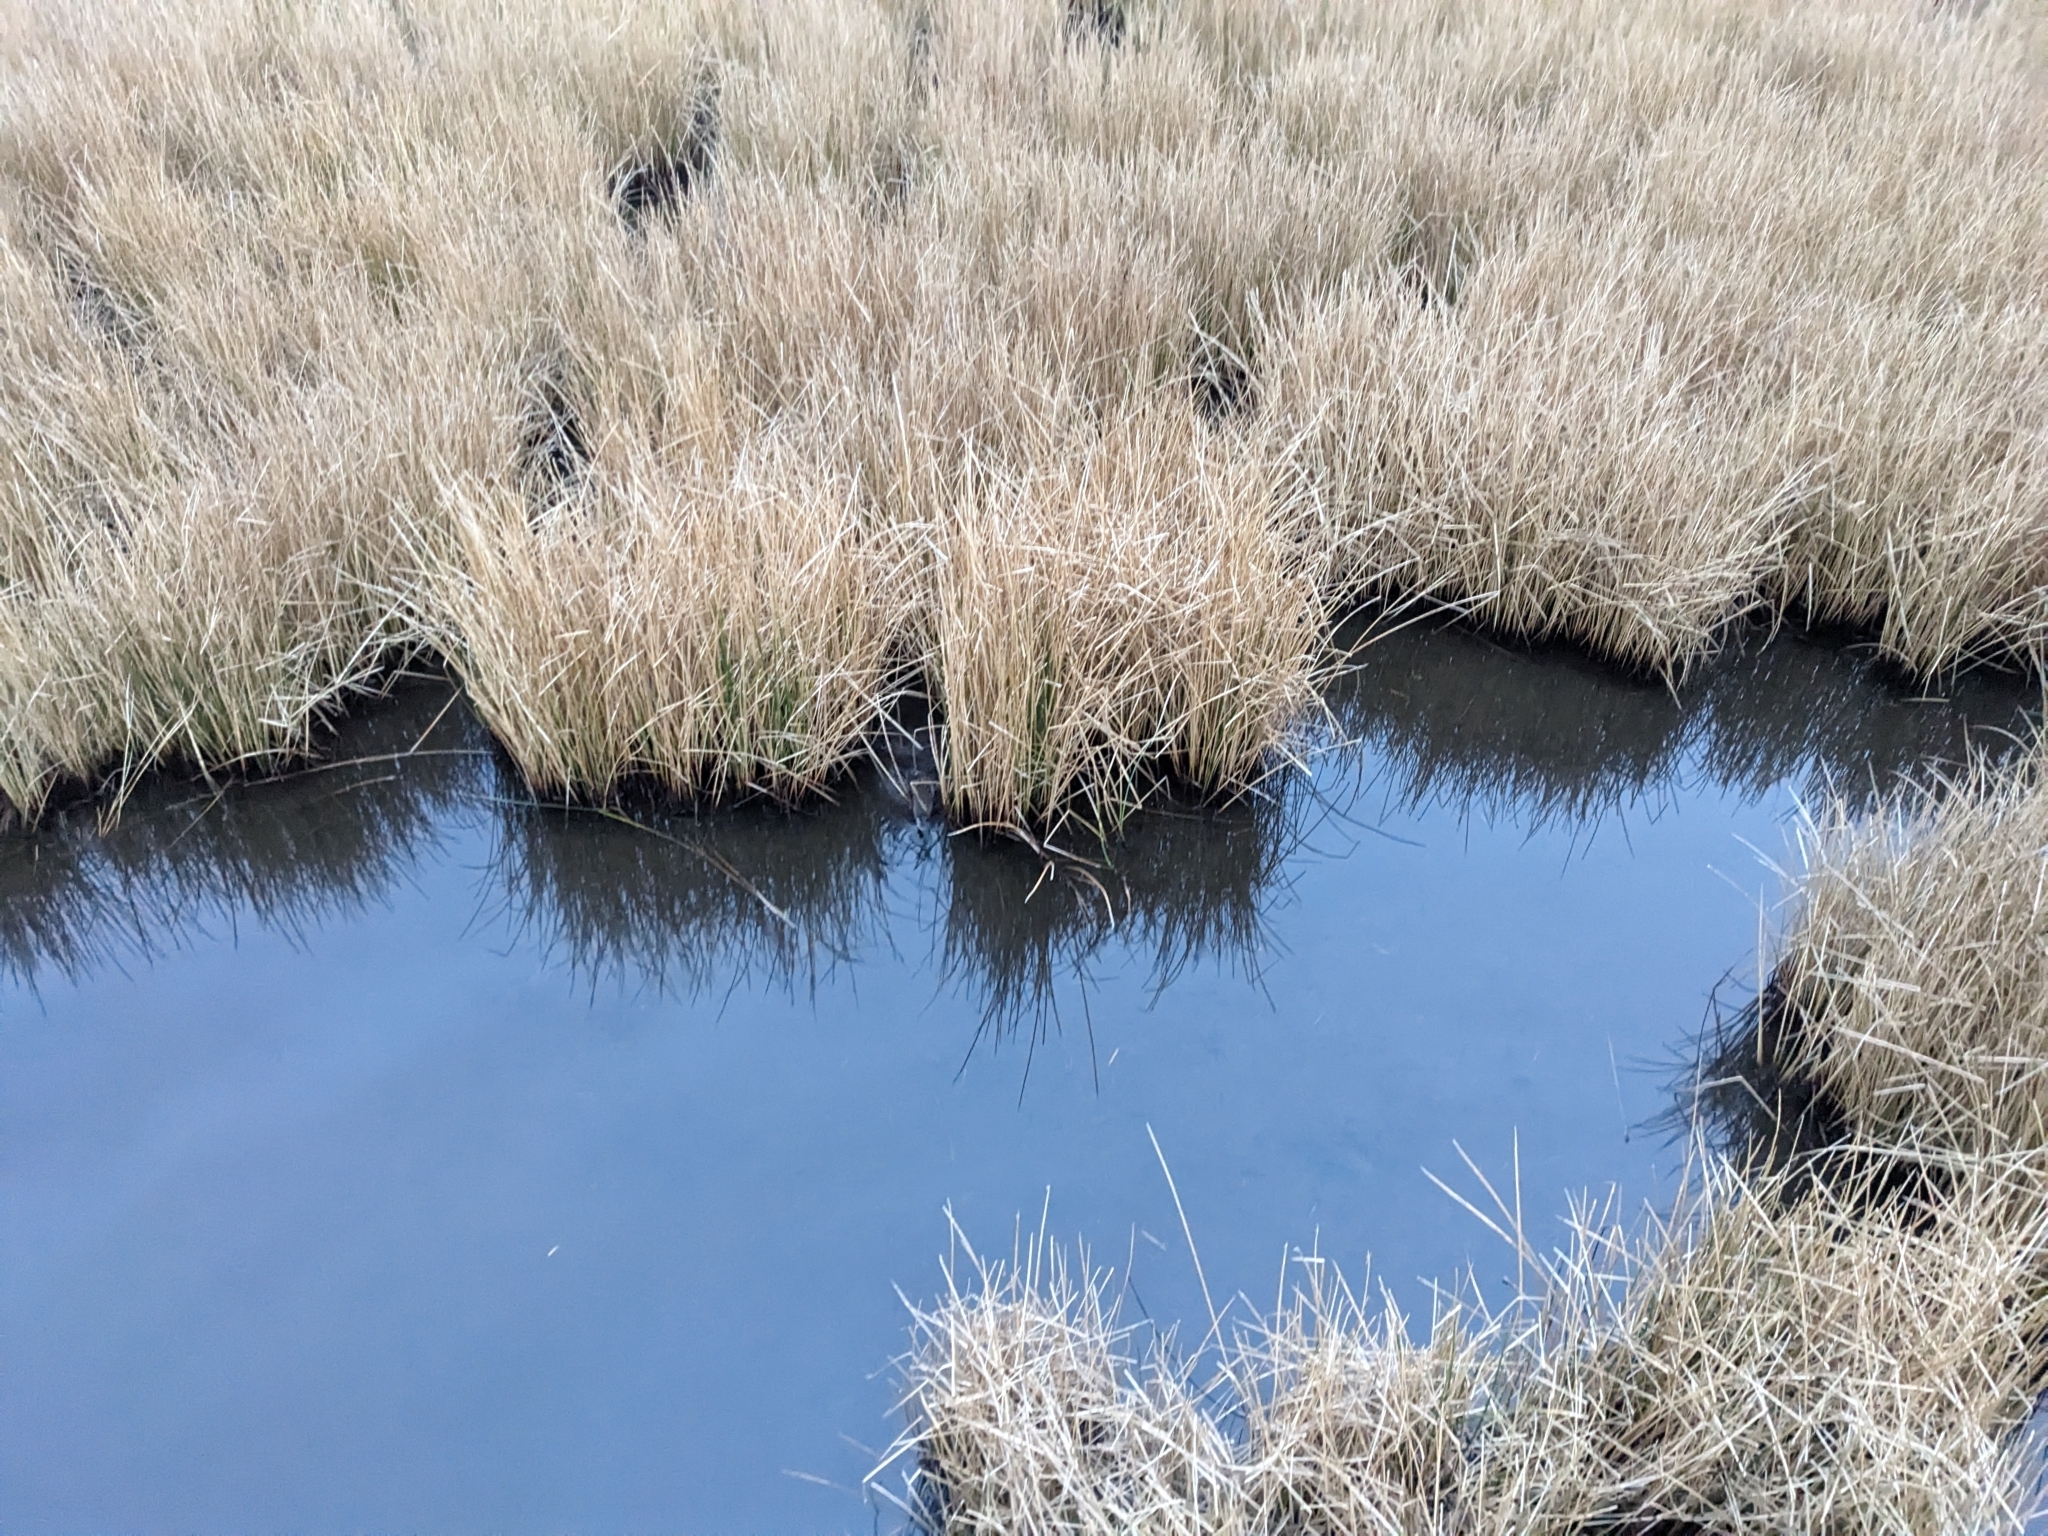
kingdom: Animalia
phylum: Chordata
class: Aves
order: Gruiformes
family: Rallidae
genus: Rallus
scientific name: Rallus elegans
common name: King rail
